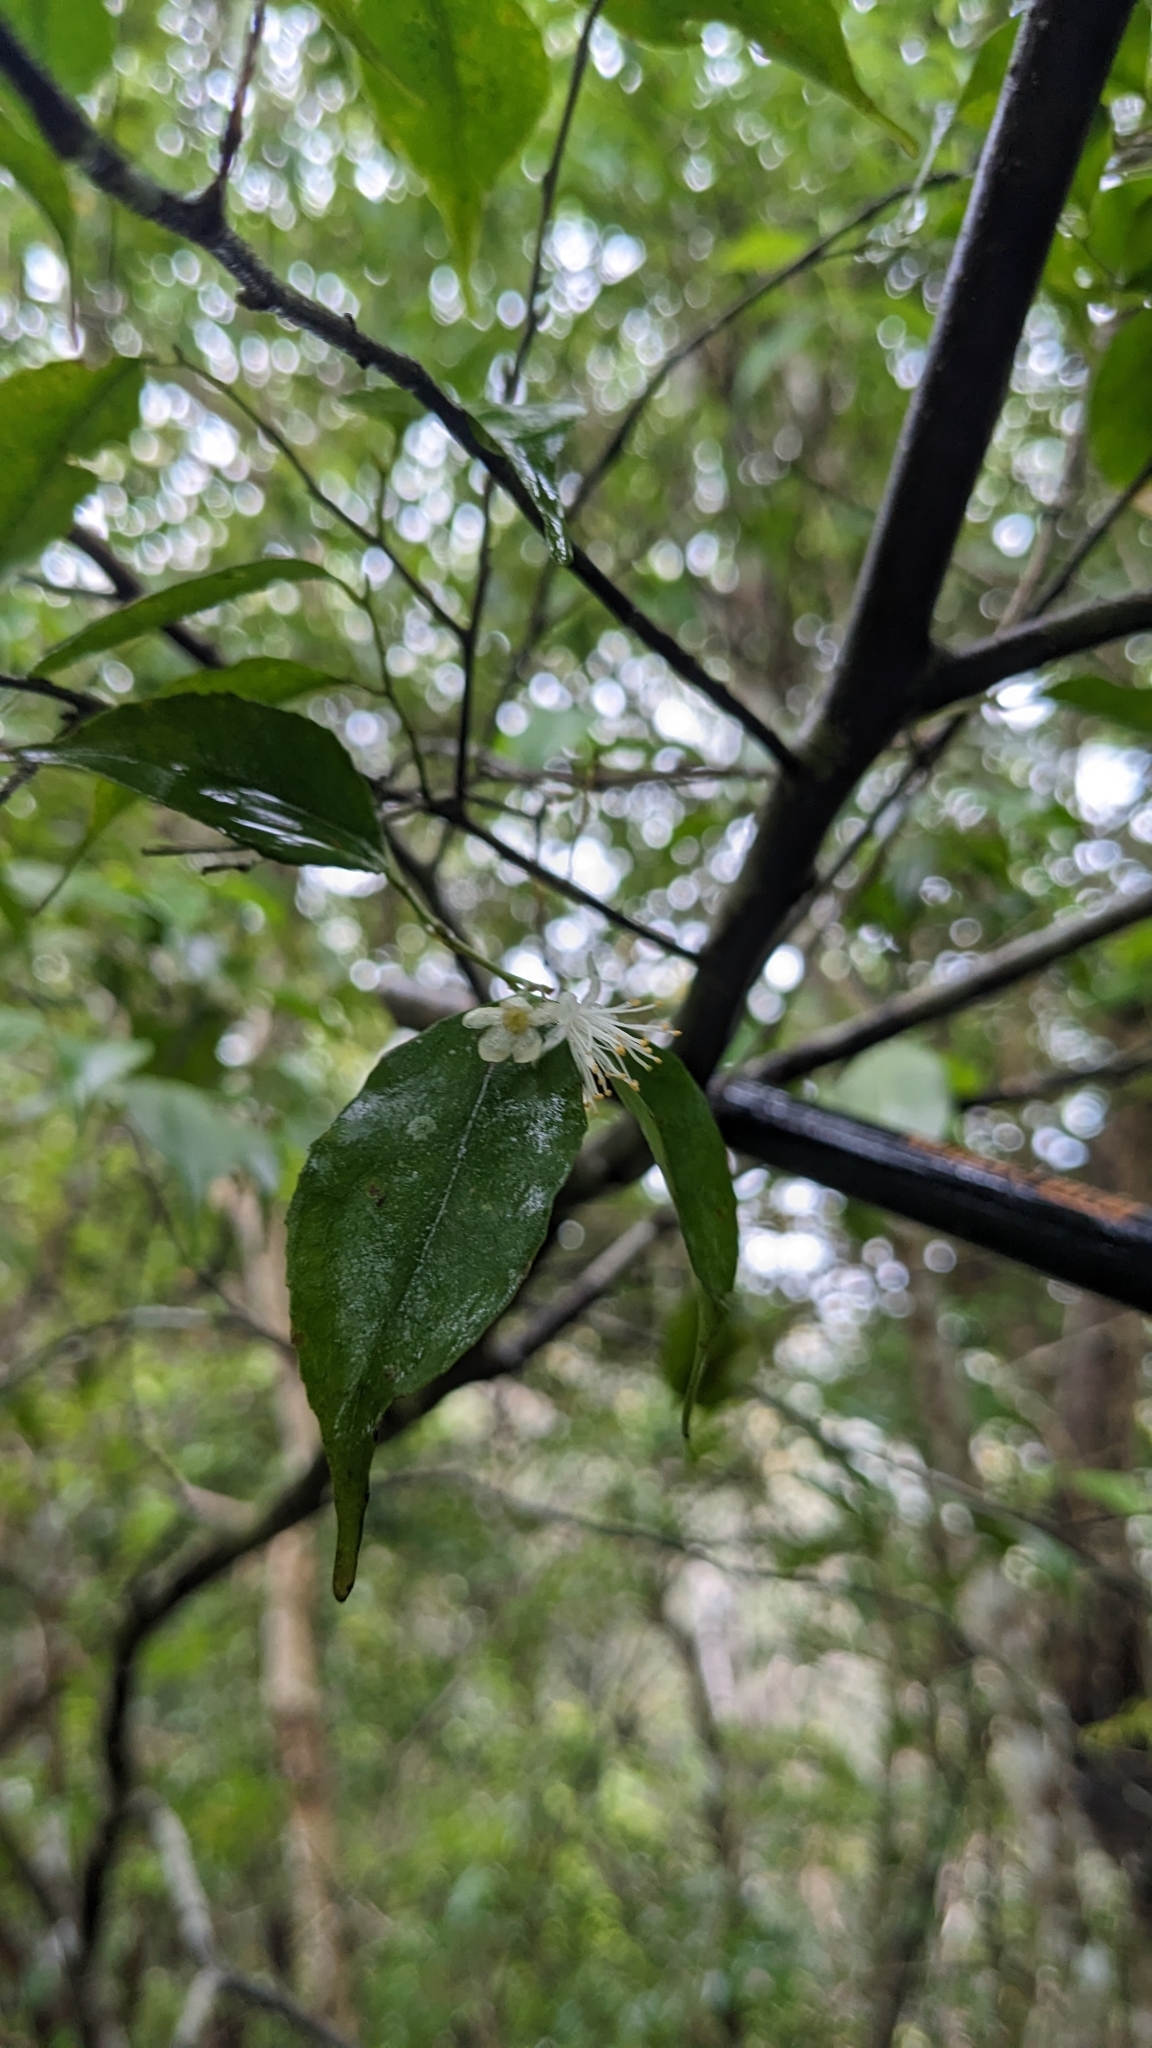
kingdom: Plantae
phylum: Tracheophyta
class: Magnoliopsida
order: Ericales
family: Symplocaceae
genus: Symplocos
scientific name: Symplocos sumuntia
